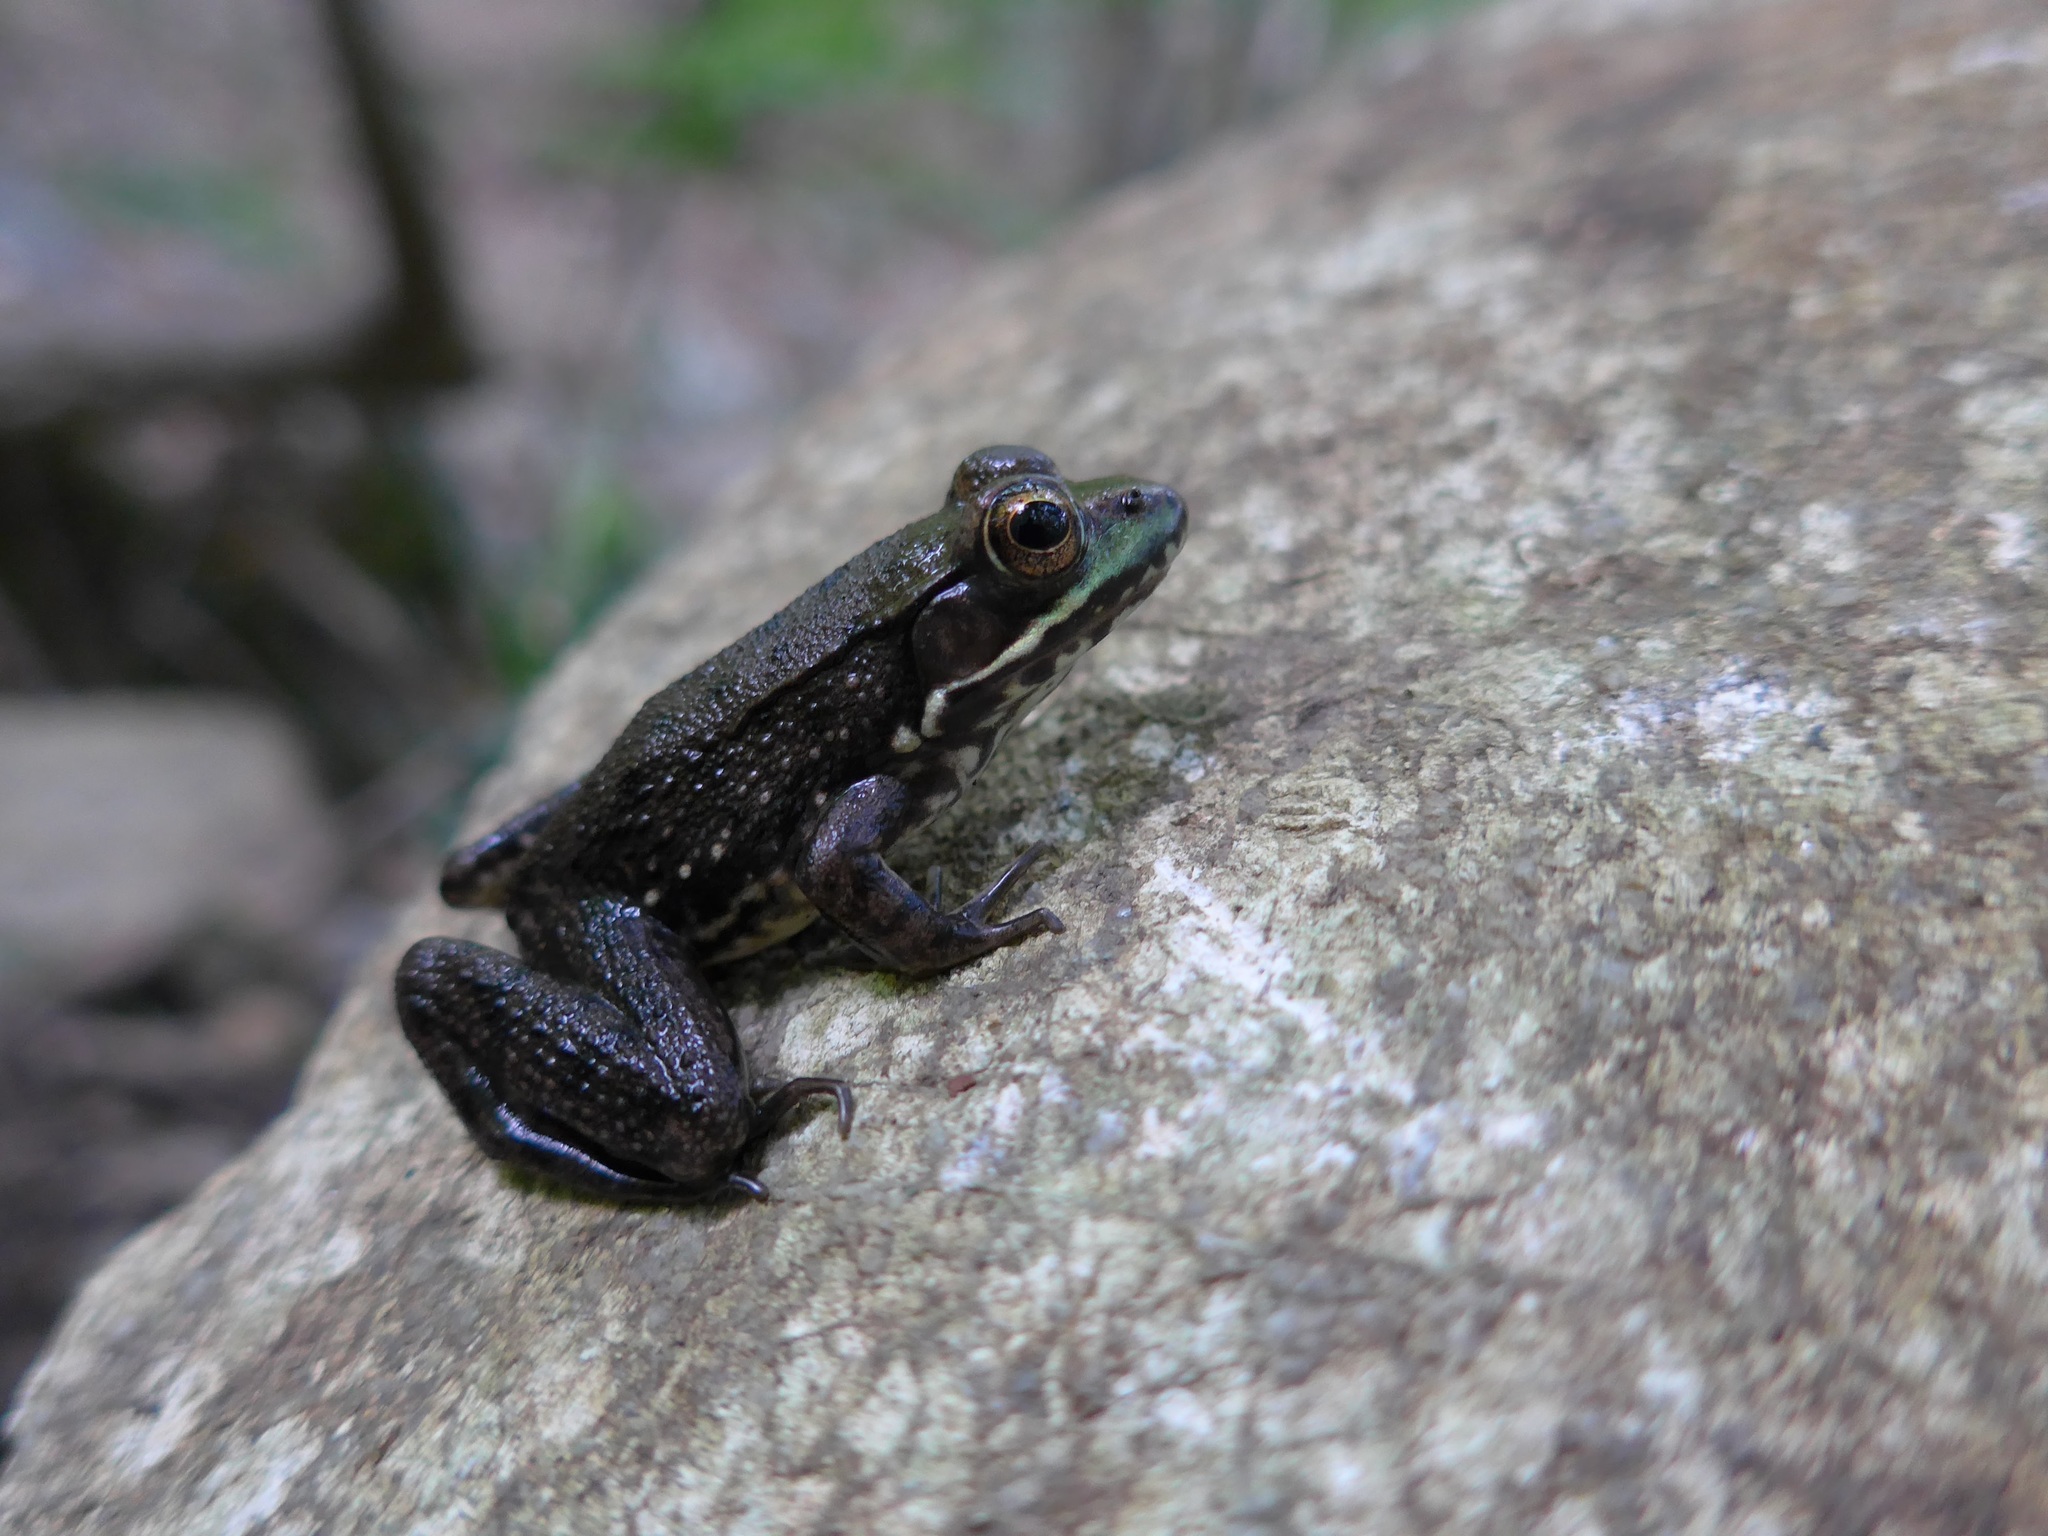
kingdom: Animalia
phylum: Chordata
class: Amphibia
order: Anura
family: Ranidae
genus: Lithobates
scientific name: Lithobates clamitans
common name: Green frog
